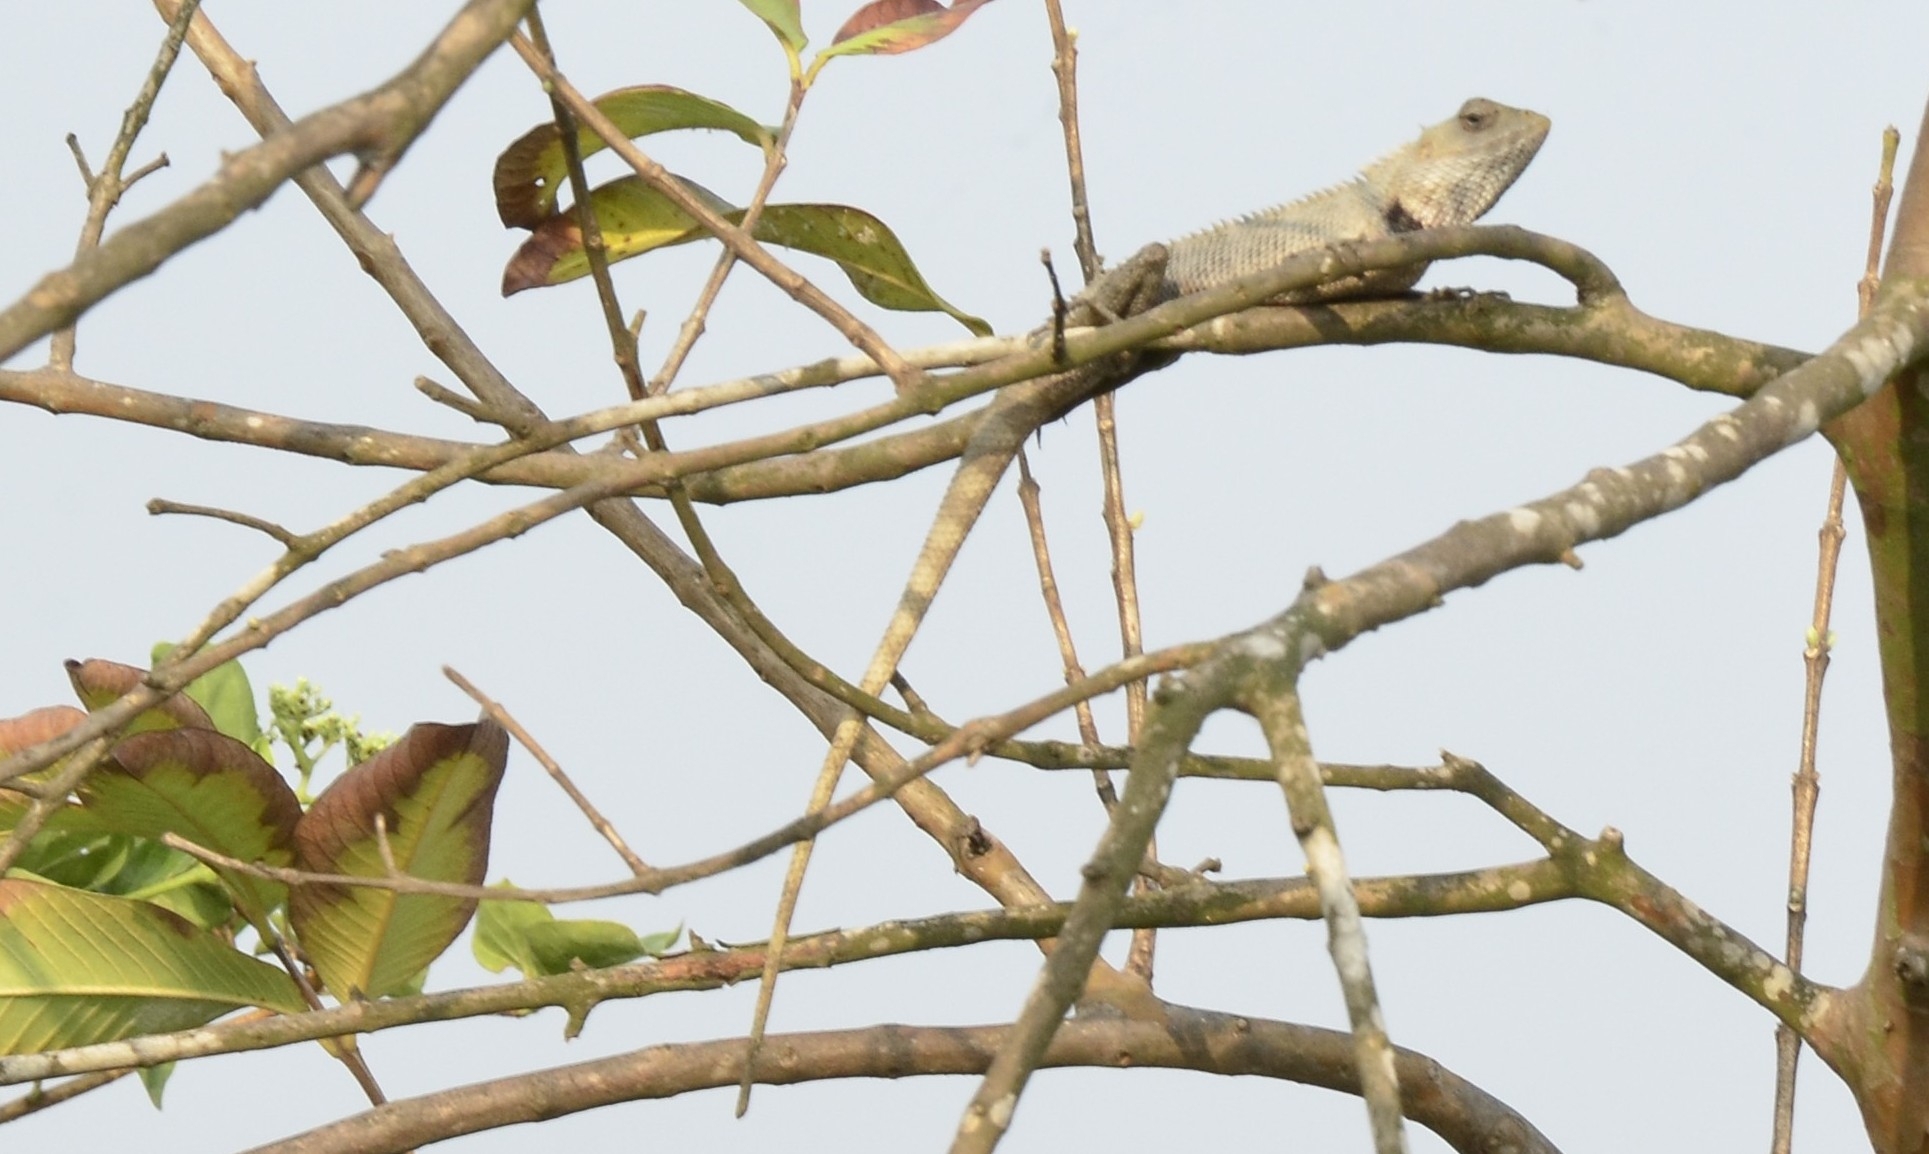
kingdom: Animalia
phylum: Chordata
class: Squamata
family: Agamidae
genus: Calotes
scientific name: Calotes versicolor
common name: Oriental garden lizard
